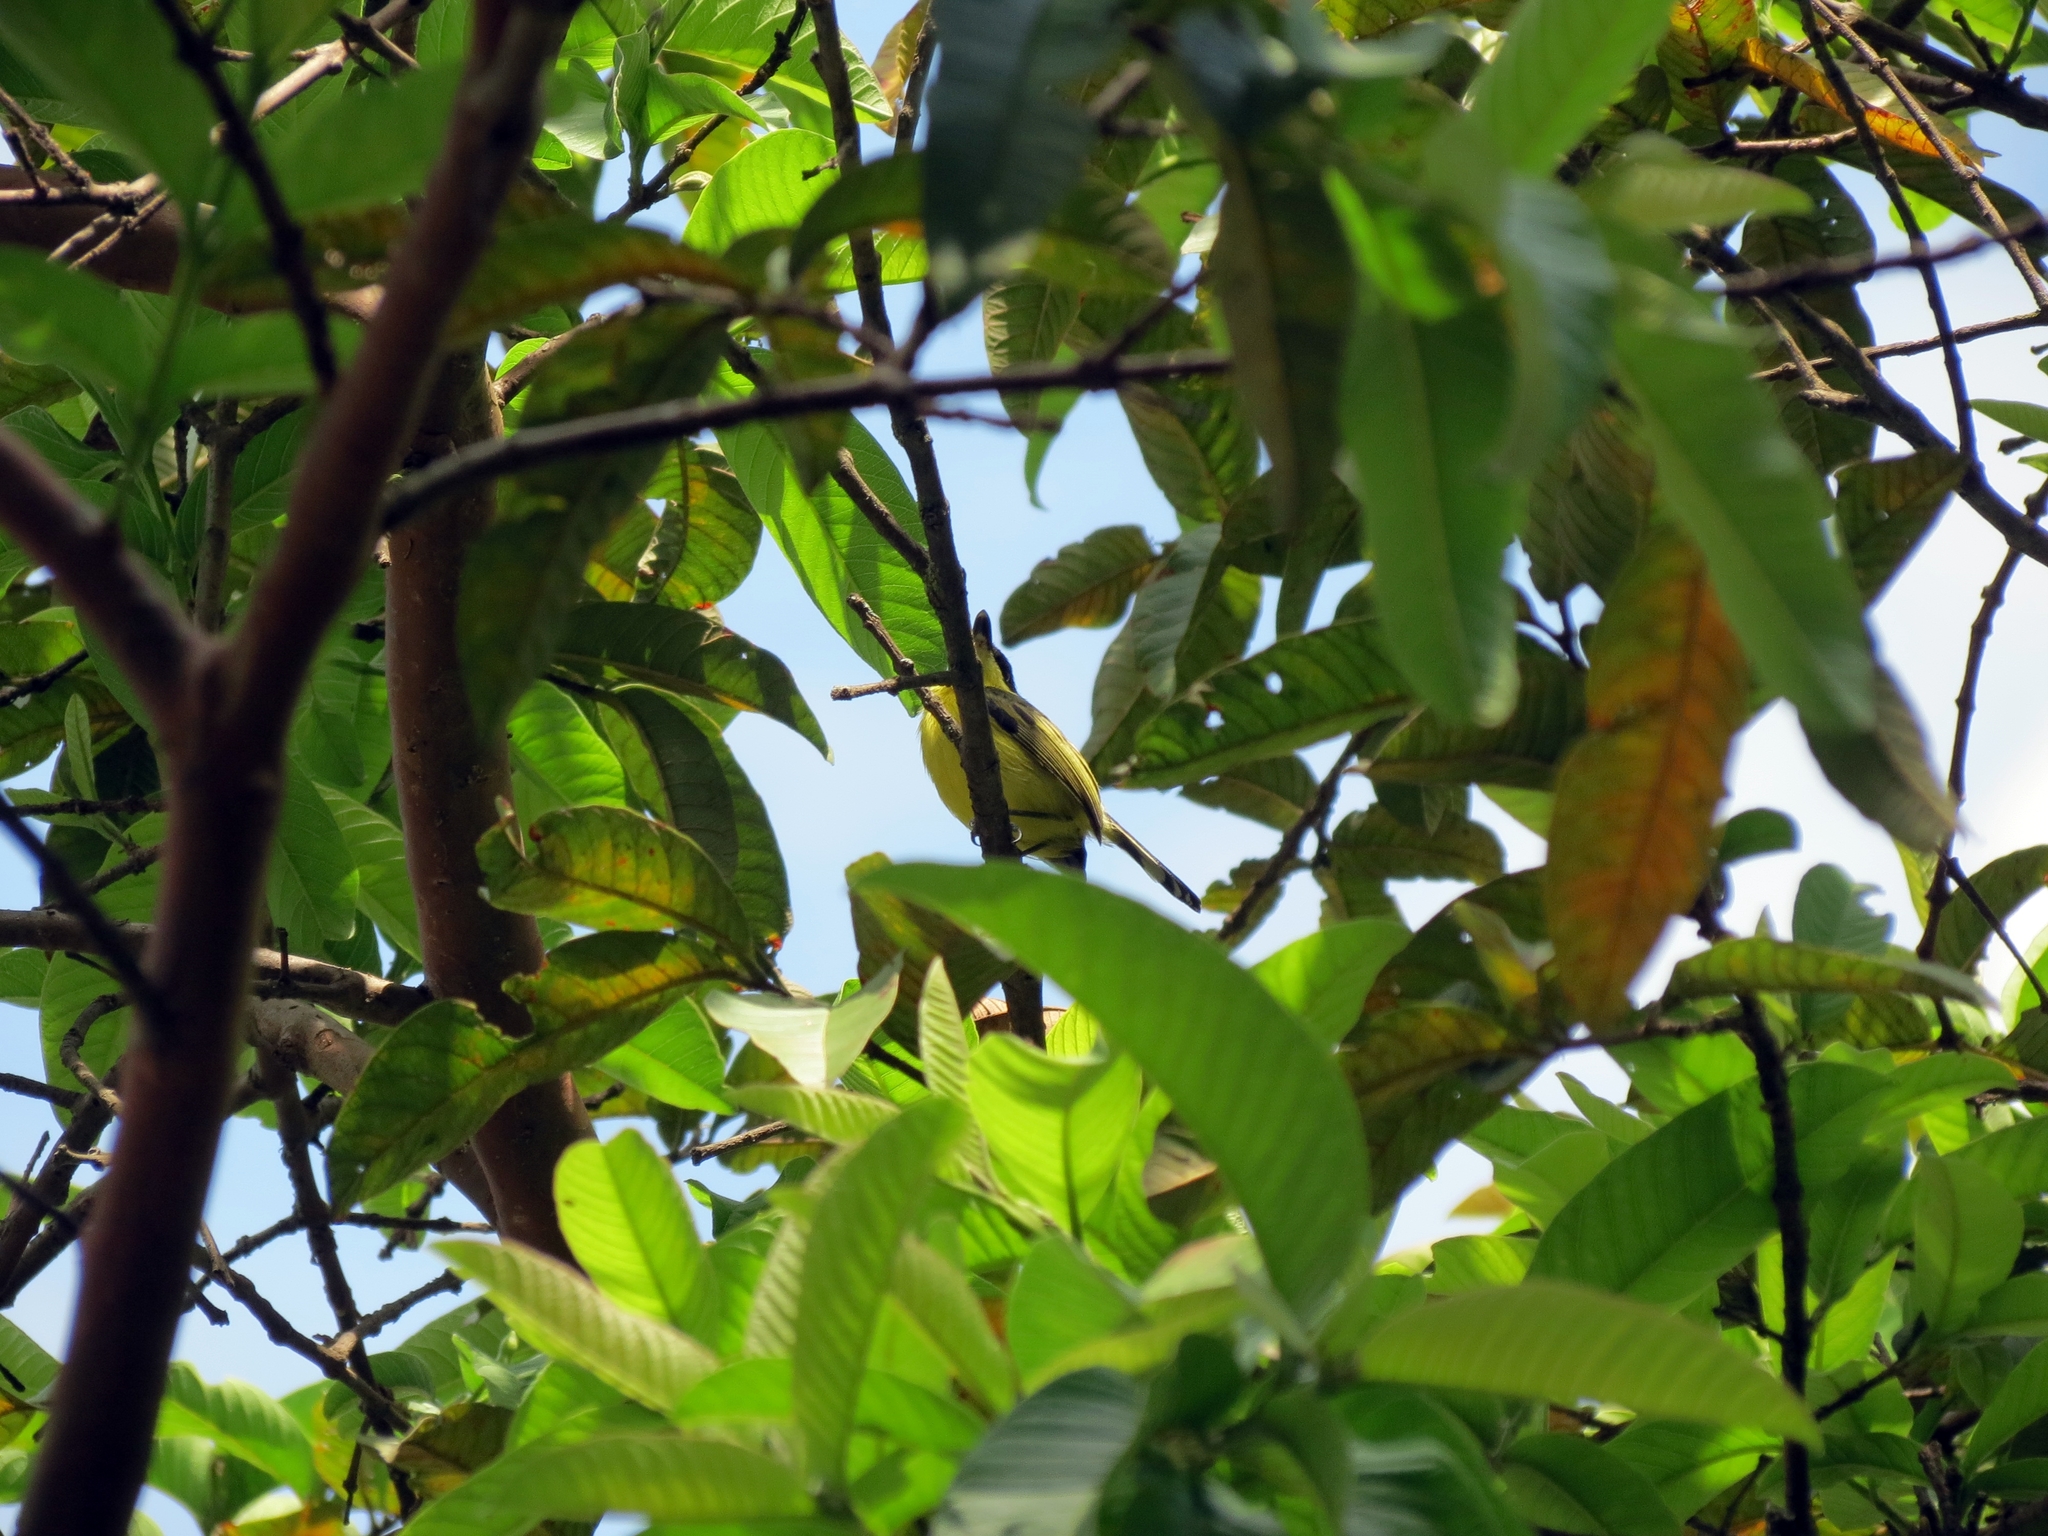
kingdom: Animalia
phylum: Chordata
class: Aves
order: Passeriformes
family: Tyrannidae
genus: Todirostrum
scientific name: Todirostrum cinereum
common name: Common tody-flycatcher
